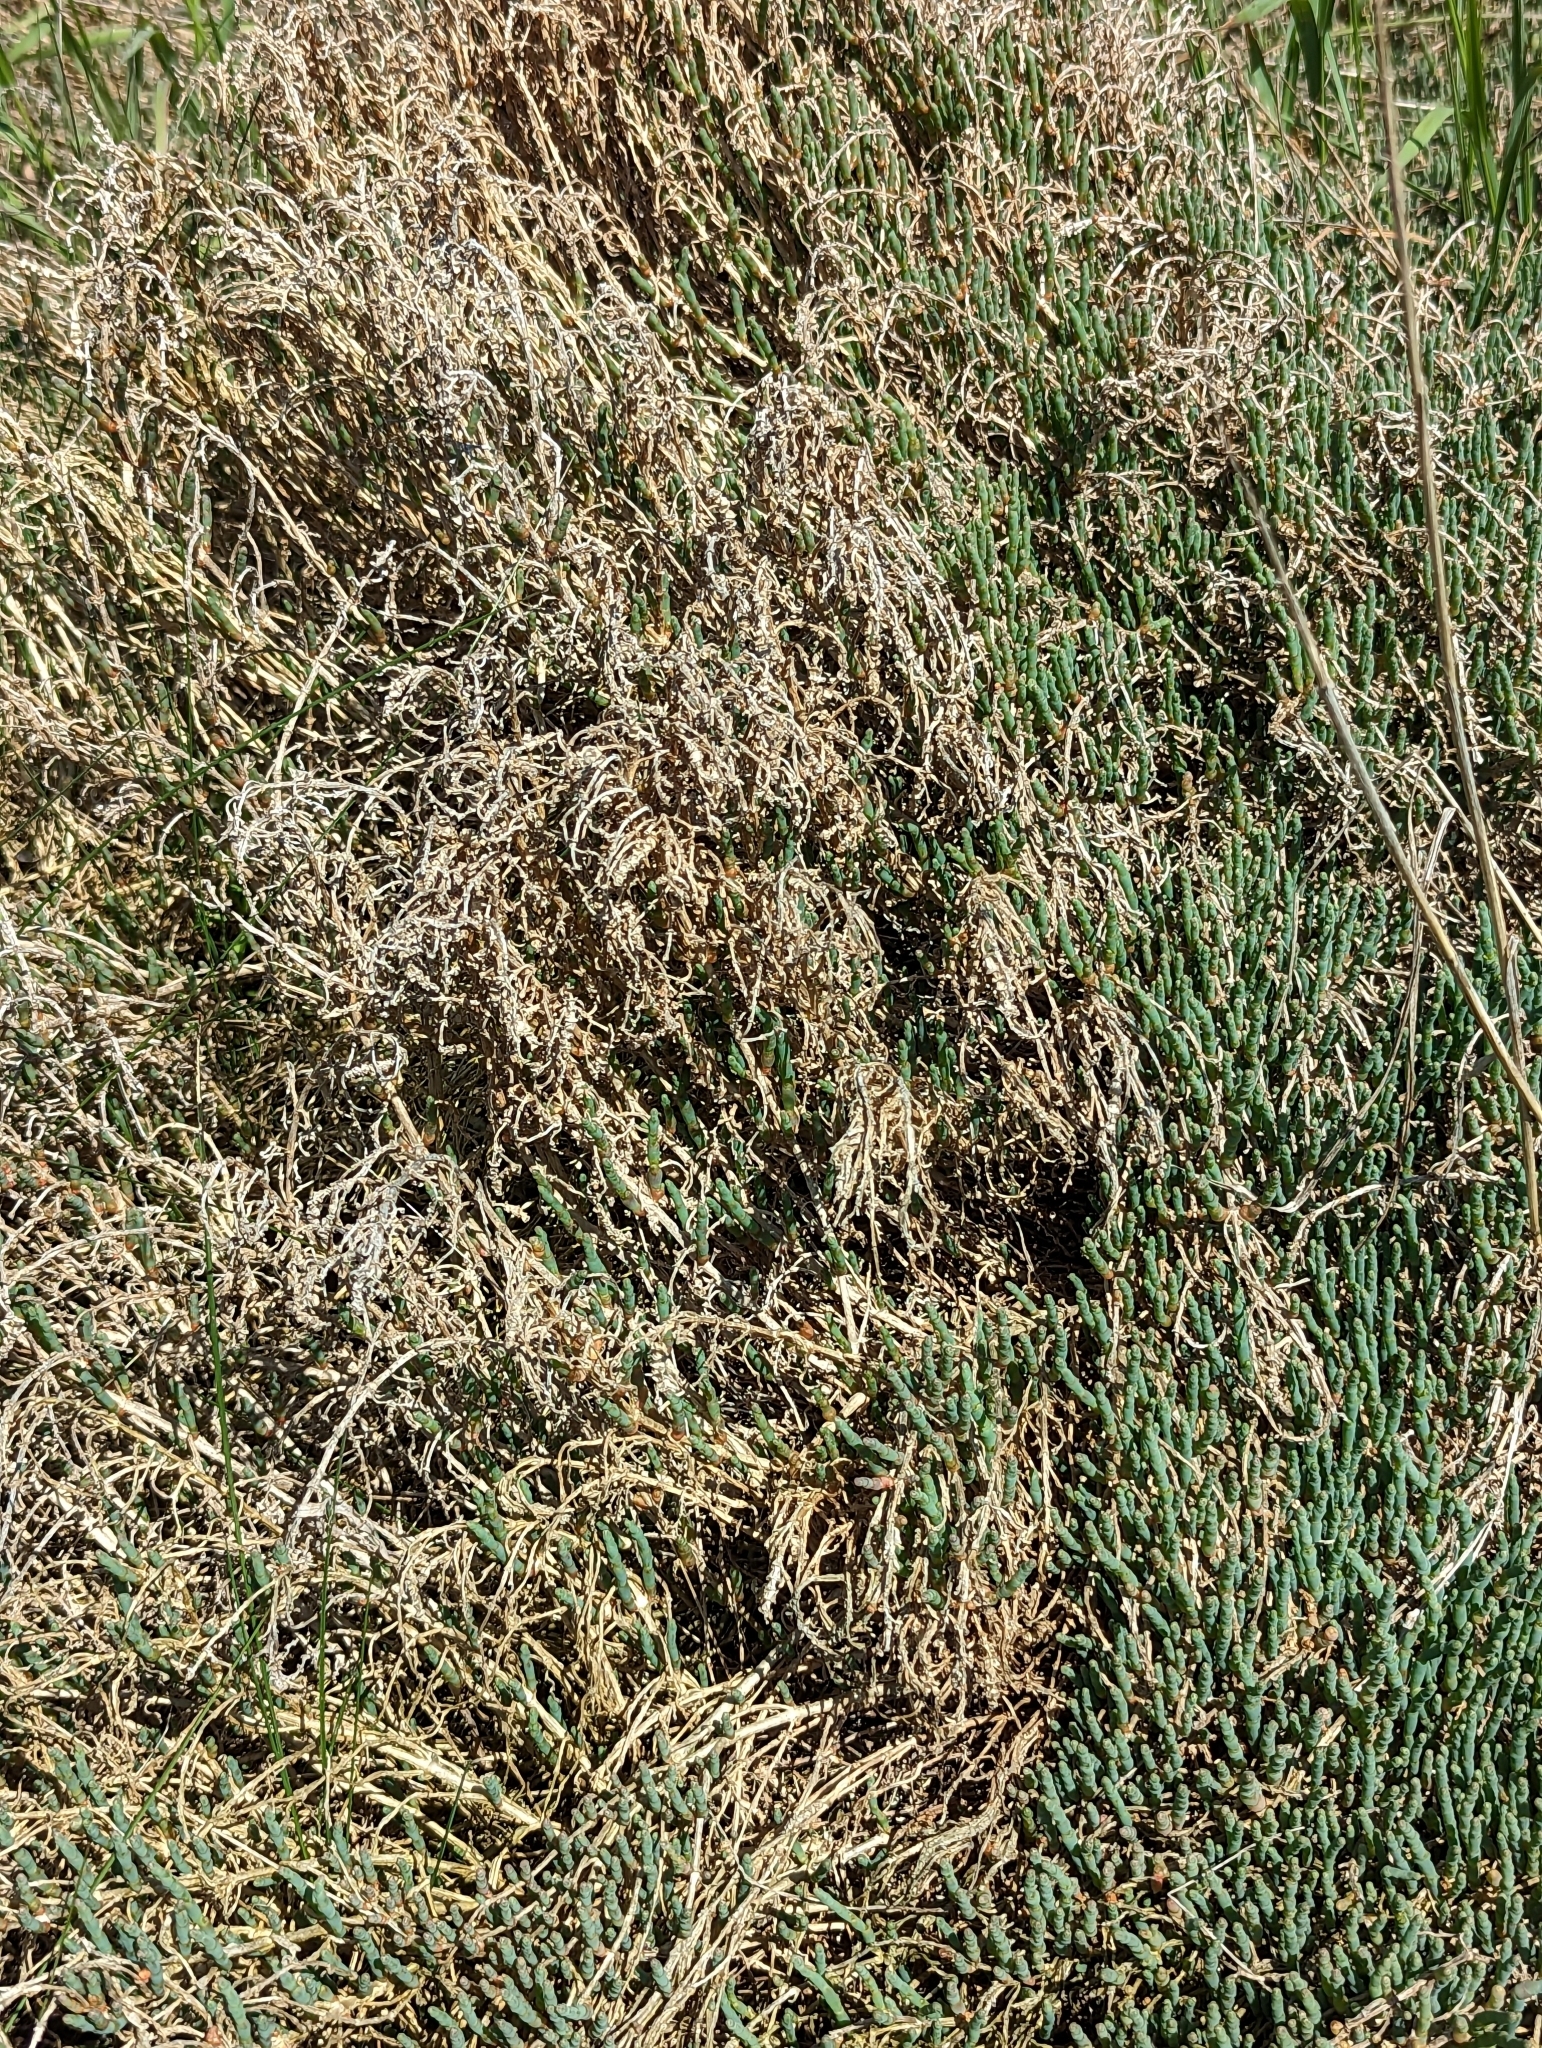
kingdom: Plantae
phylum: Tracheophyta
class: Magnoliopsida
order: Caryophyllales
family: Amaranthaceae
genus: Salicornia
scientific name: Salicornia pacifica
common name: Pacific glasswort
